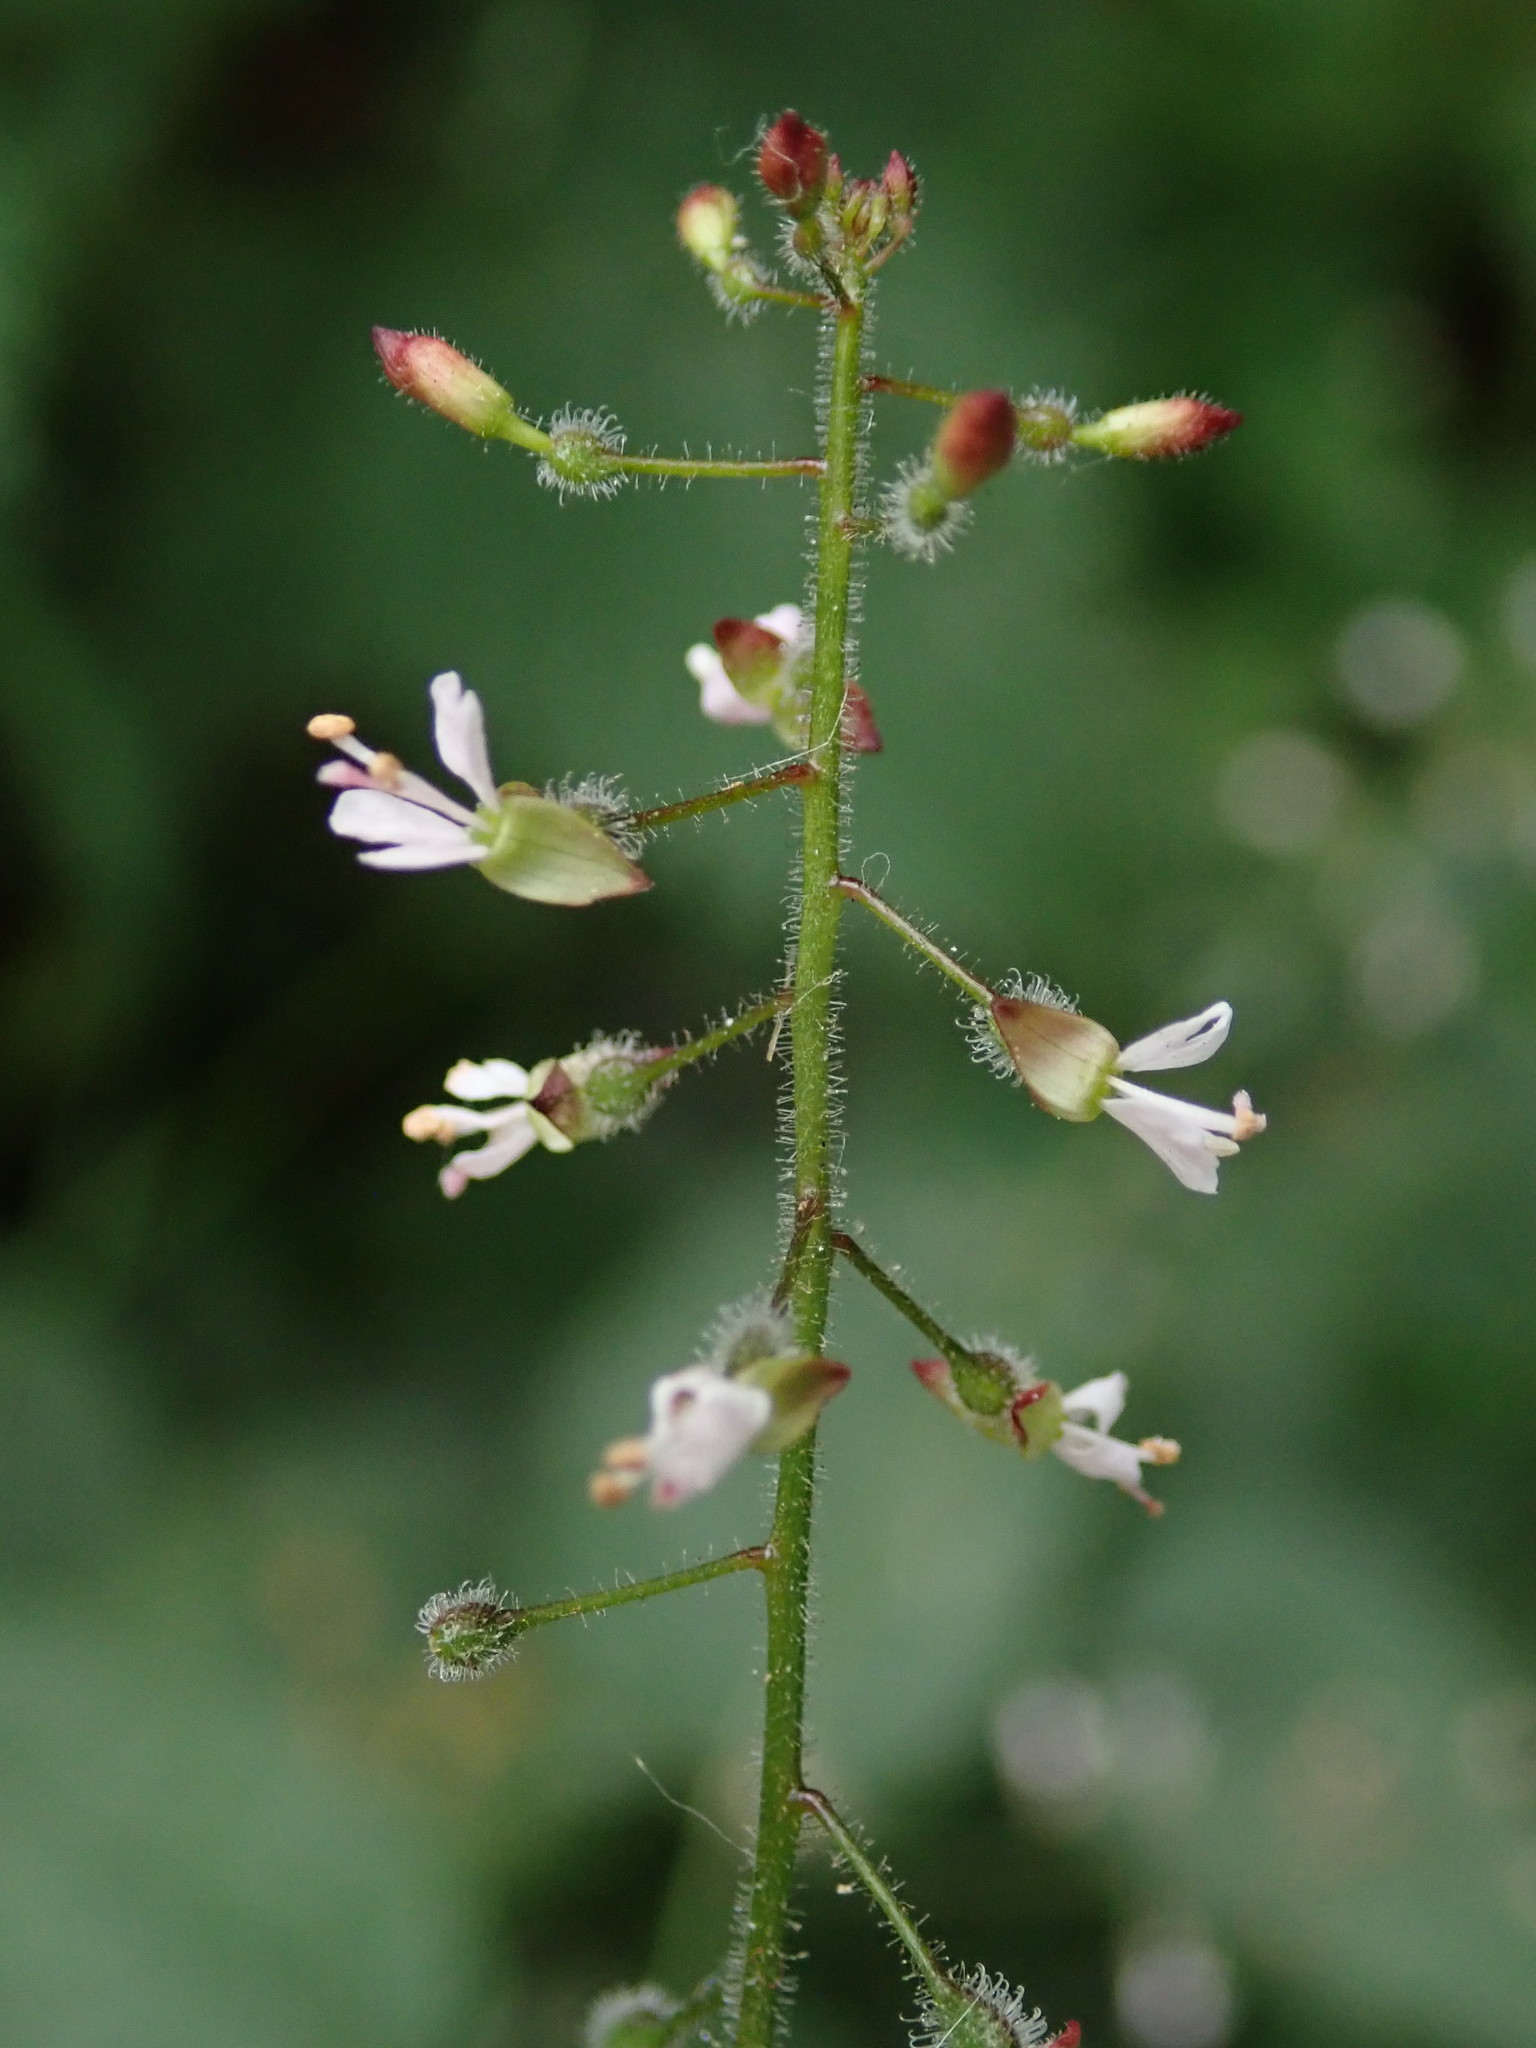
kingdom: Plantae
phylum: Tracheophyta
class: Magnoliopsida
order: Myrtales
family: Onagraceae
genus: Circaea
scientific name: Circaea lutetiana
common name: Enchanter's-nightshade
